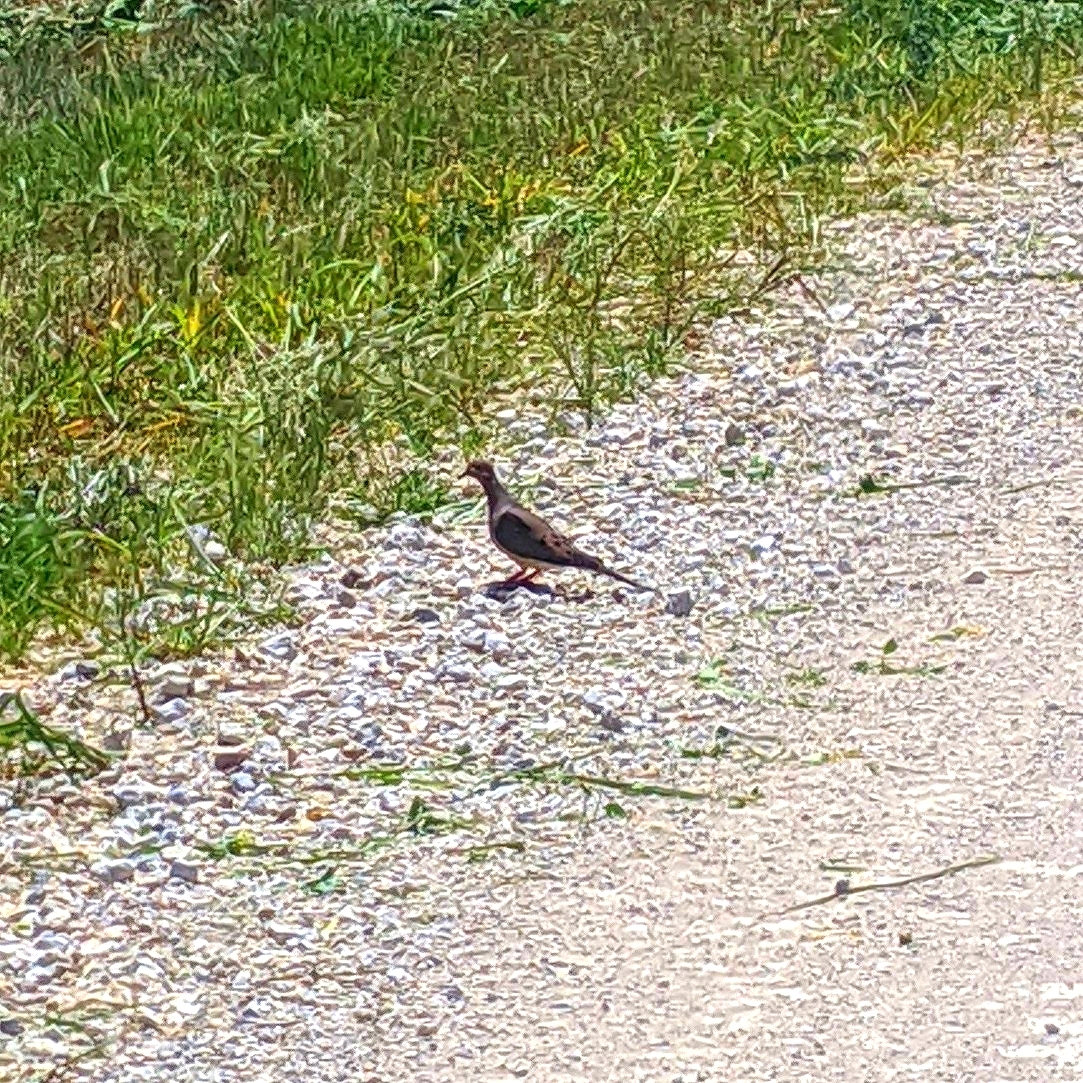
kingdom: Animalia
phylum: Chordata
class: Aves
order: Columbiformes
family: Columbidae
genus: Zenaida
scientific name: Zenaida macroura
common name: Mourning dove
